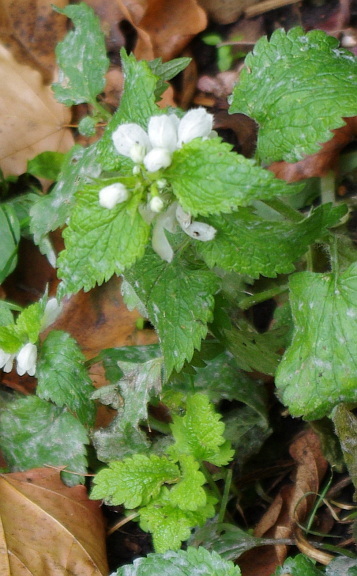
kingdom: Plantae
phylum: Tracheophyta
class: Magnoliopsida
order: Lamiales
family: Lamiaceae
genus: Lamium
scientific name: Lamium album
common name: White dead-nettle
